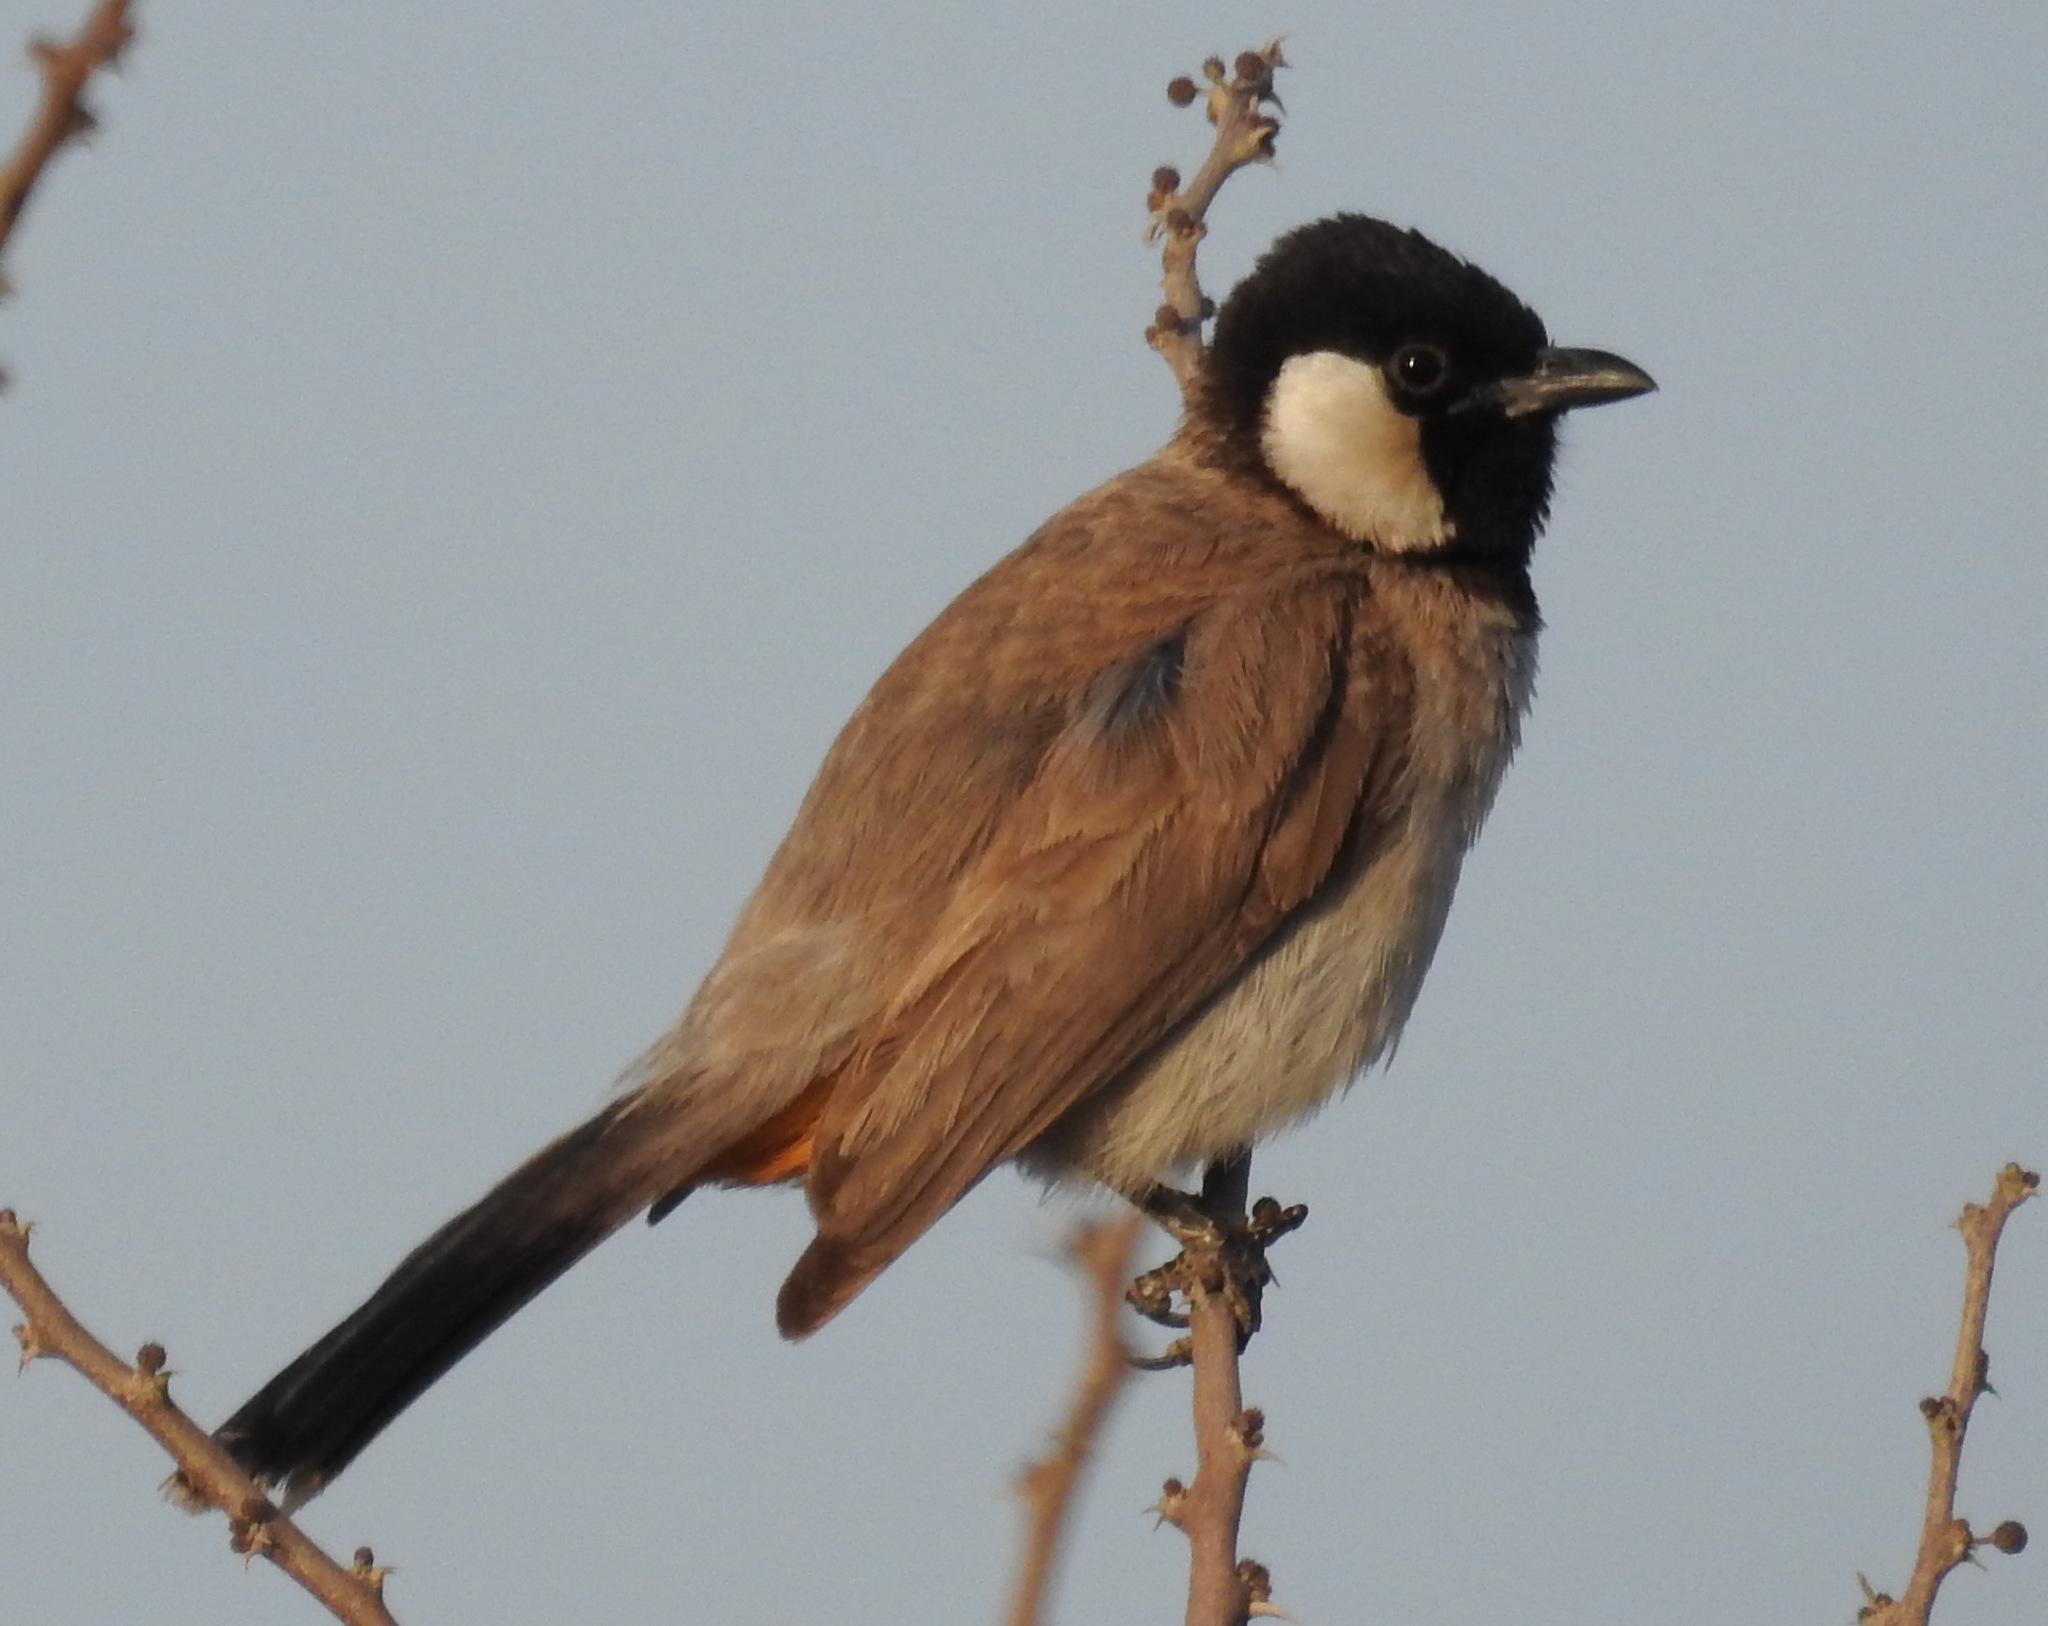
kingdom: Animalia
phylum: Chordata
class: Aves
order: Passeriformes
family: Pycnonotidae
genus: Pycnonotus
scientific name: Pycnonotus leucotis
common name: White-eared bulbul
